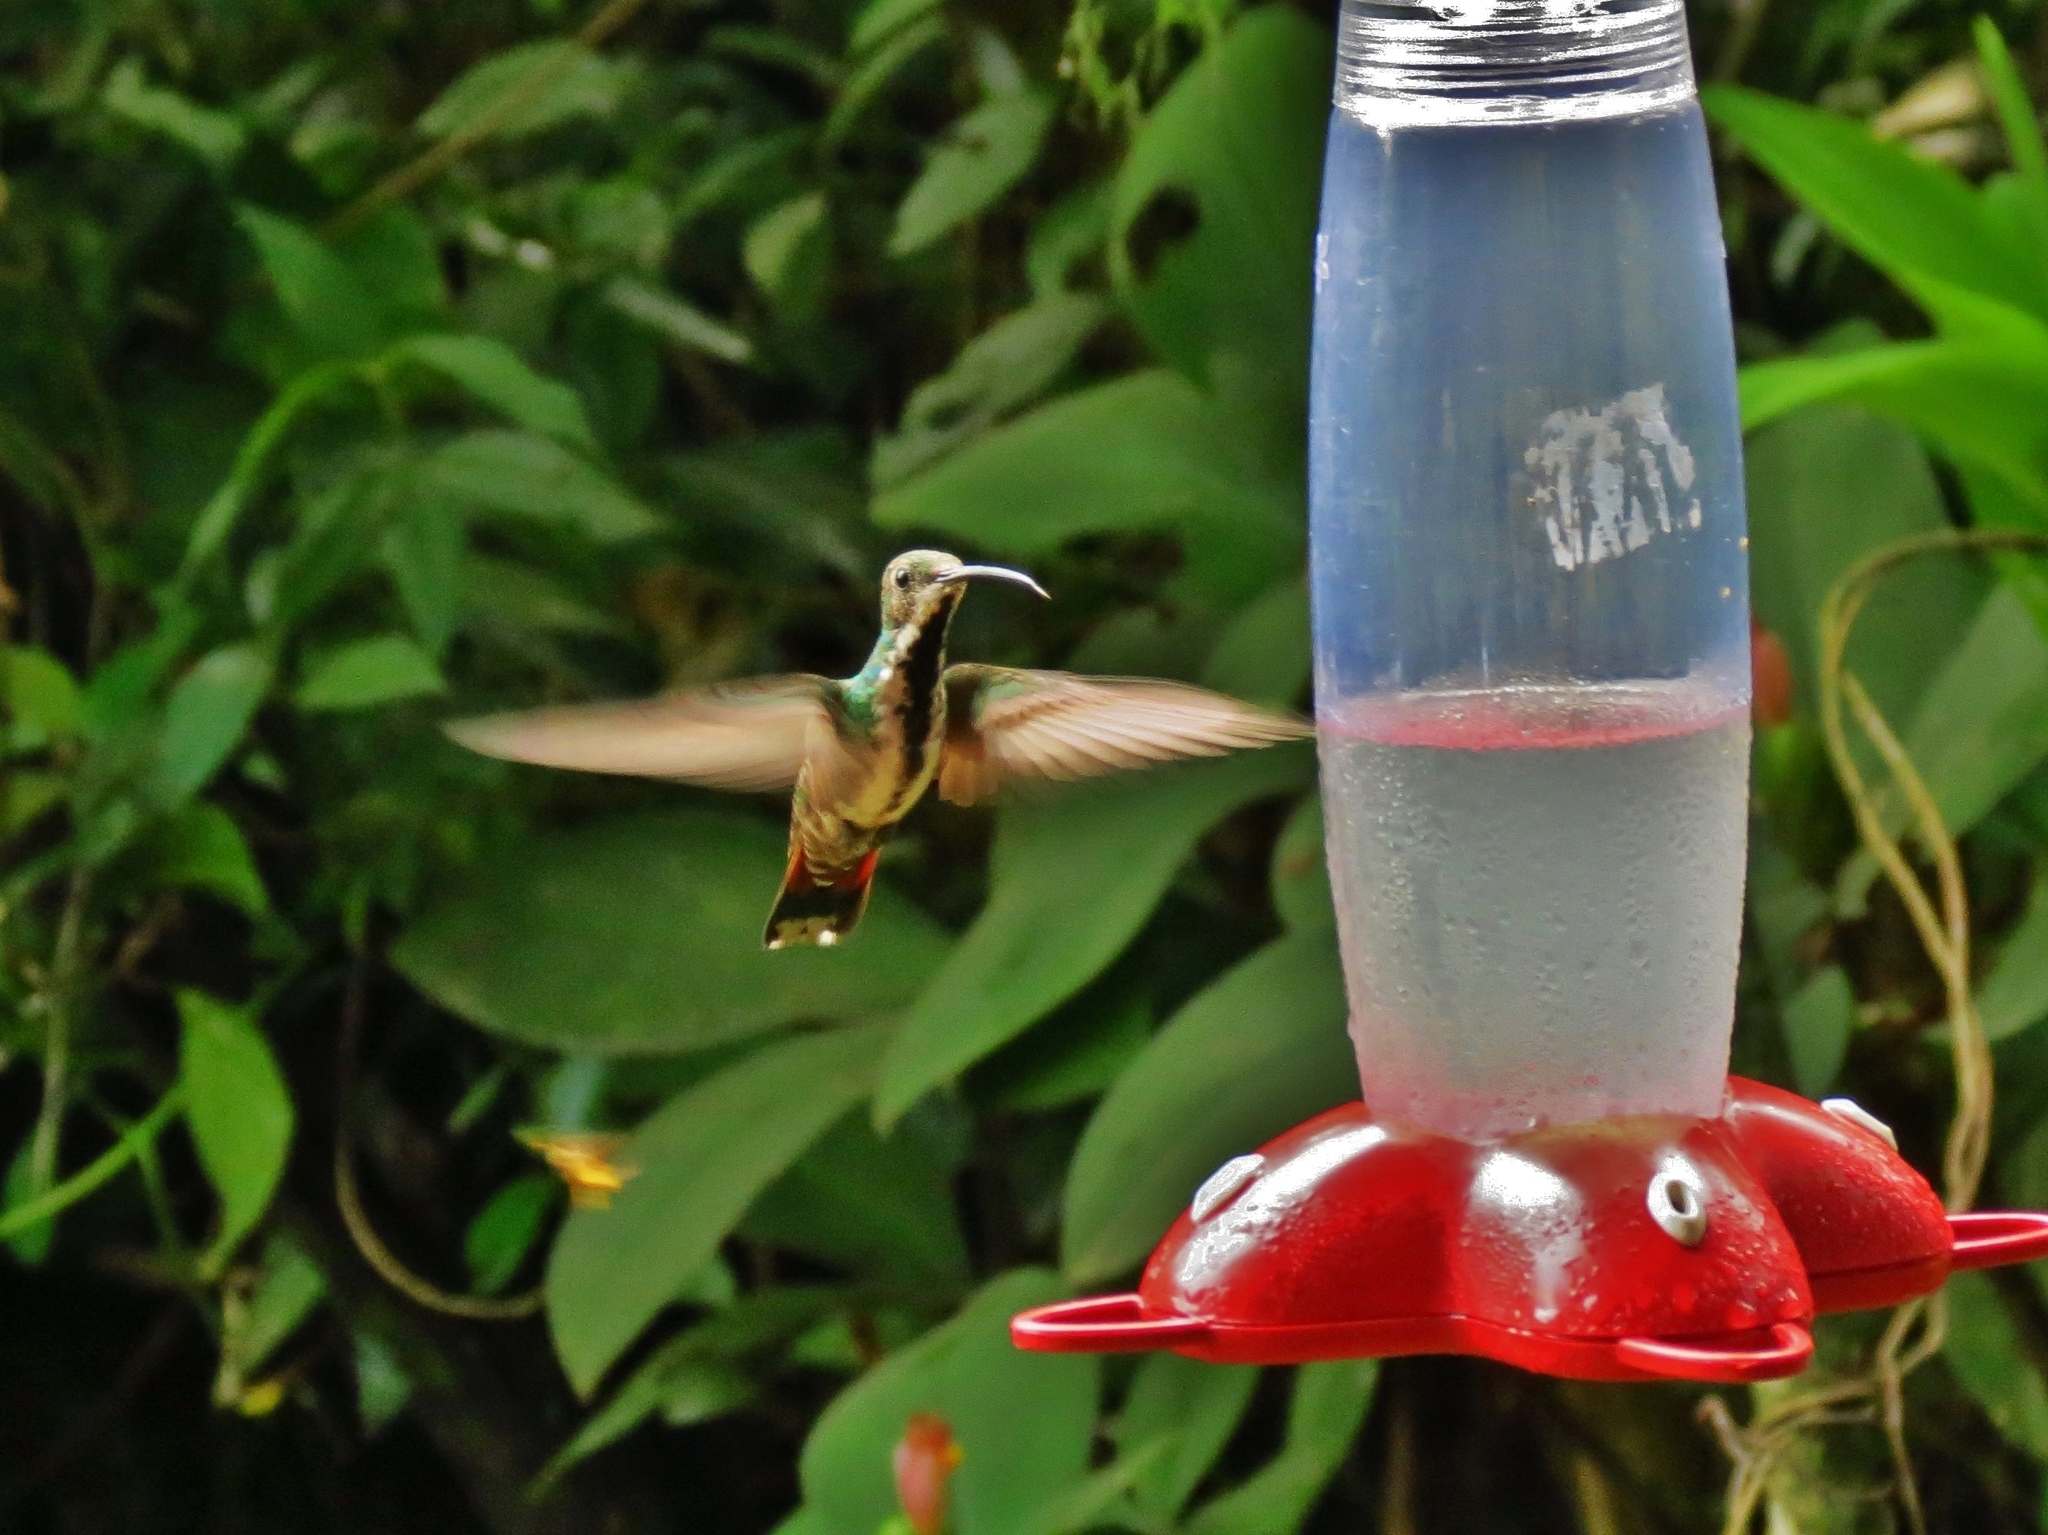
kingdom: Animalia
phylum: Chordata
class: Aves
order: Apodiformes
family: Trochilidae
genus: Anthracothorax
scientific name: Anthracothorax prevostii
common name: Green-breasted mango
